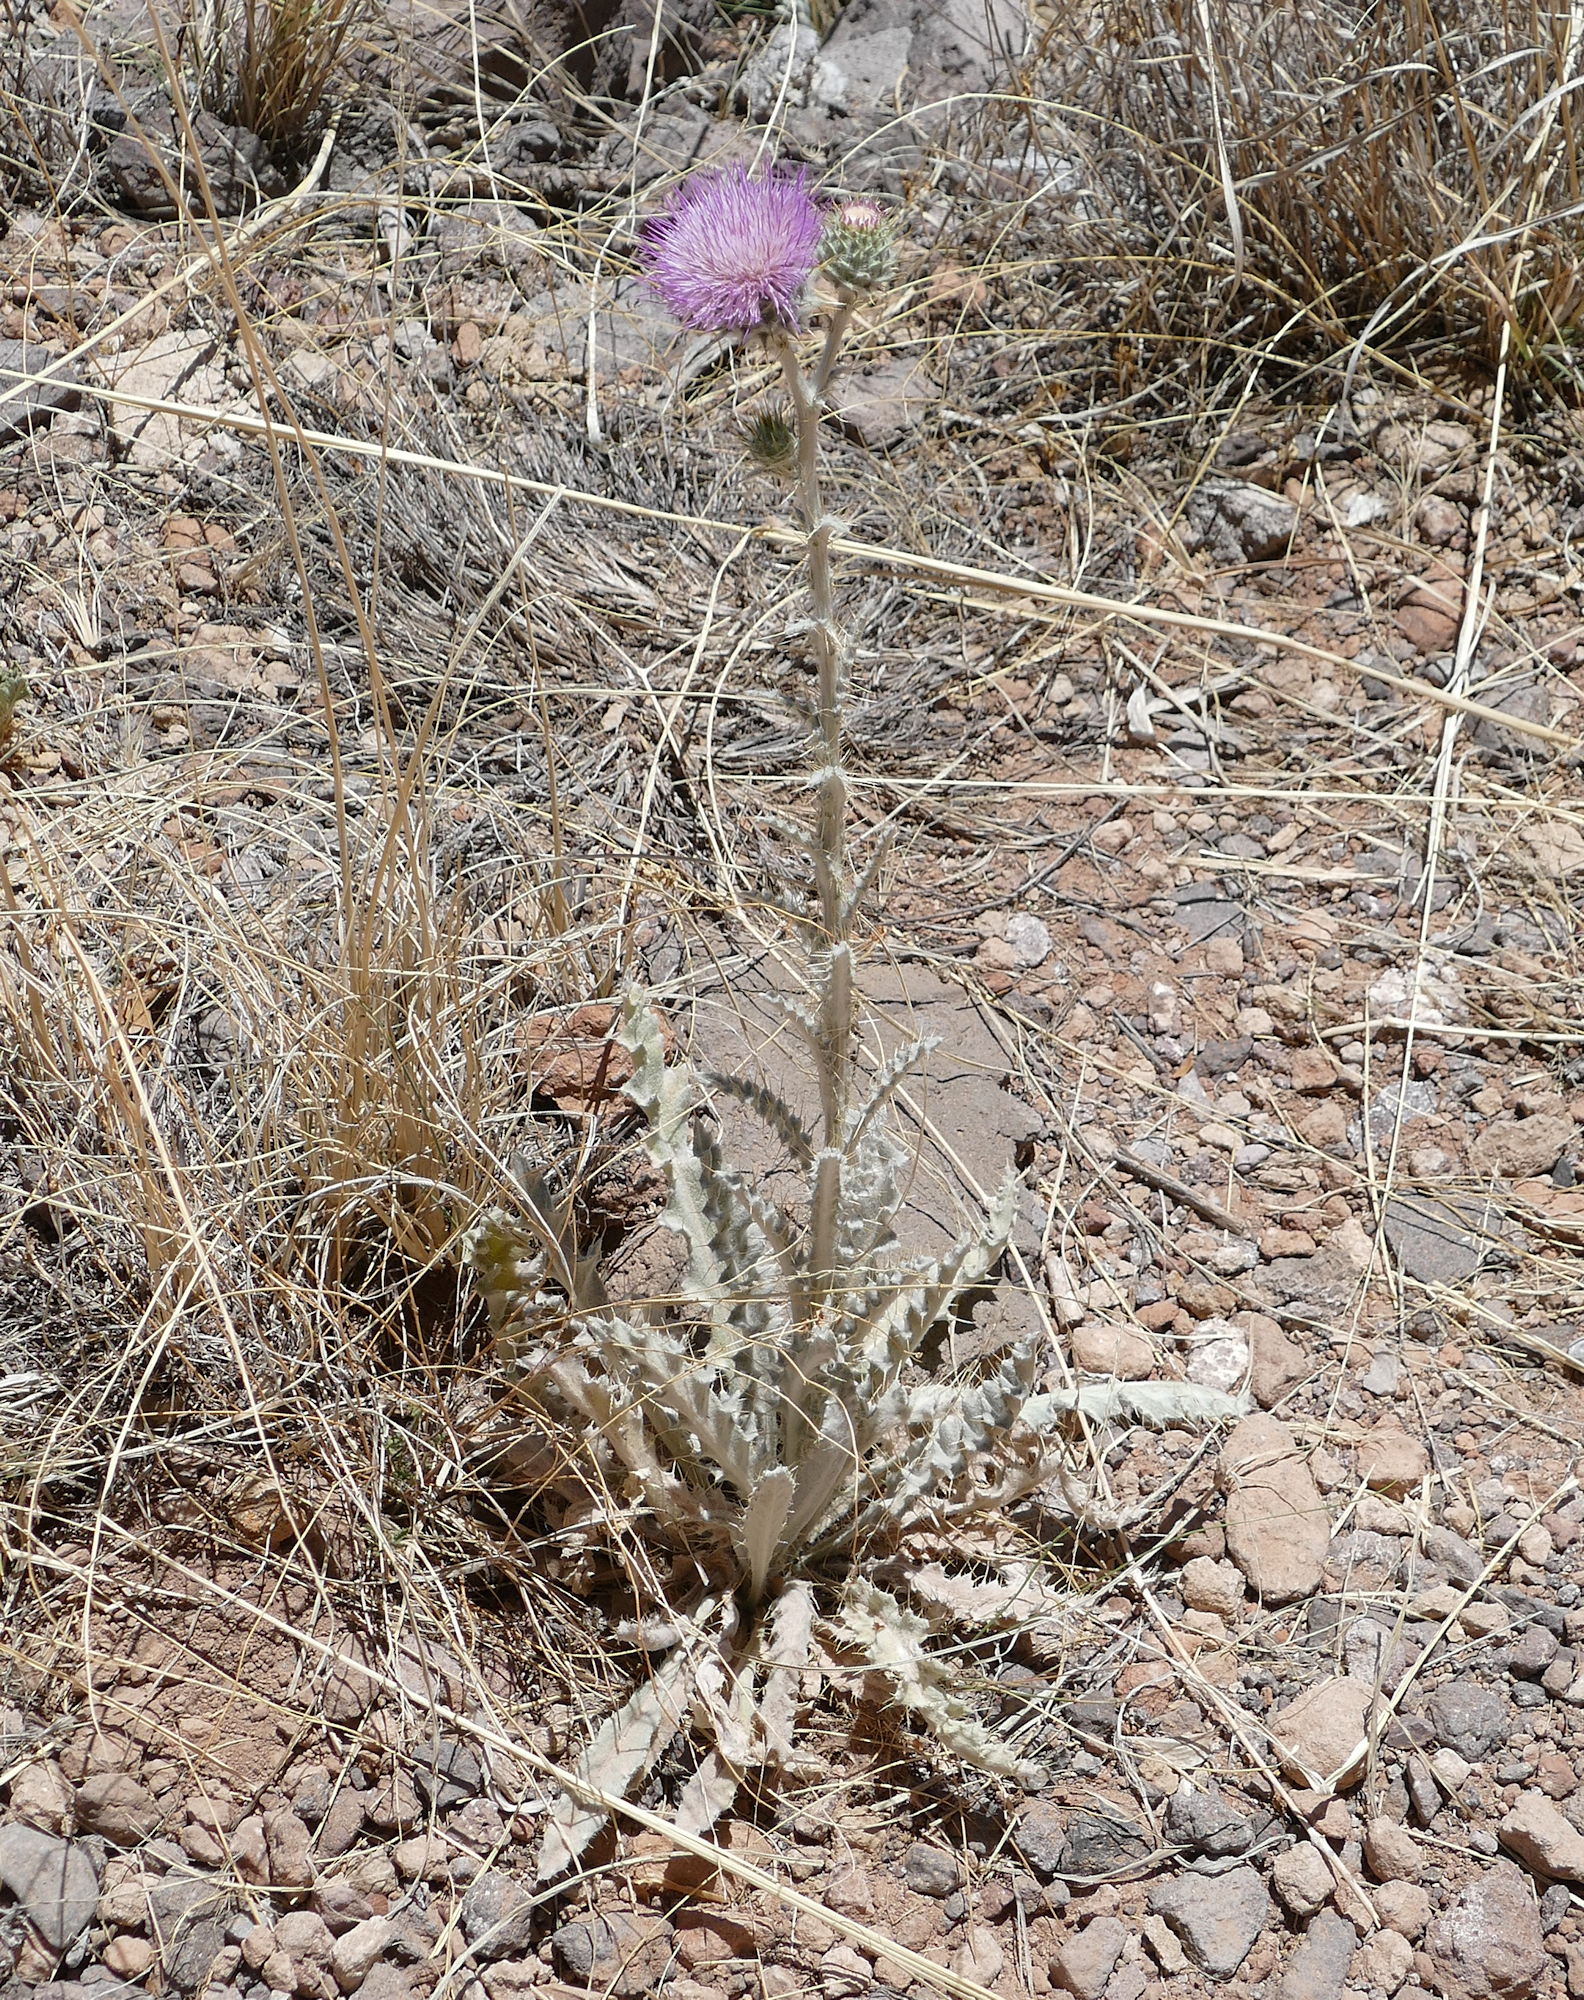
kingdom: Plantae
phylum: Tracheophyta
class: Magnoliopsida
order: Asterales
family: Asteraceae
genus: Cirsium
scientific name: Cirsium neomexicanum
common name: New mexico thistle
